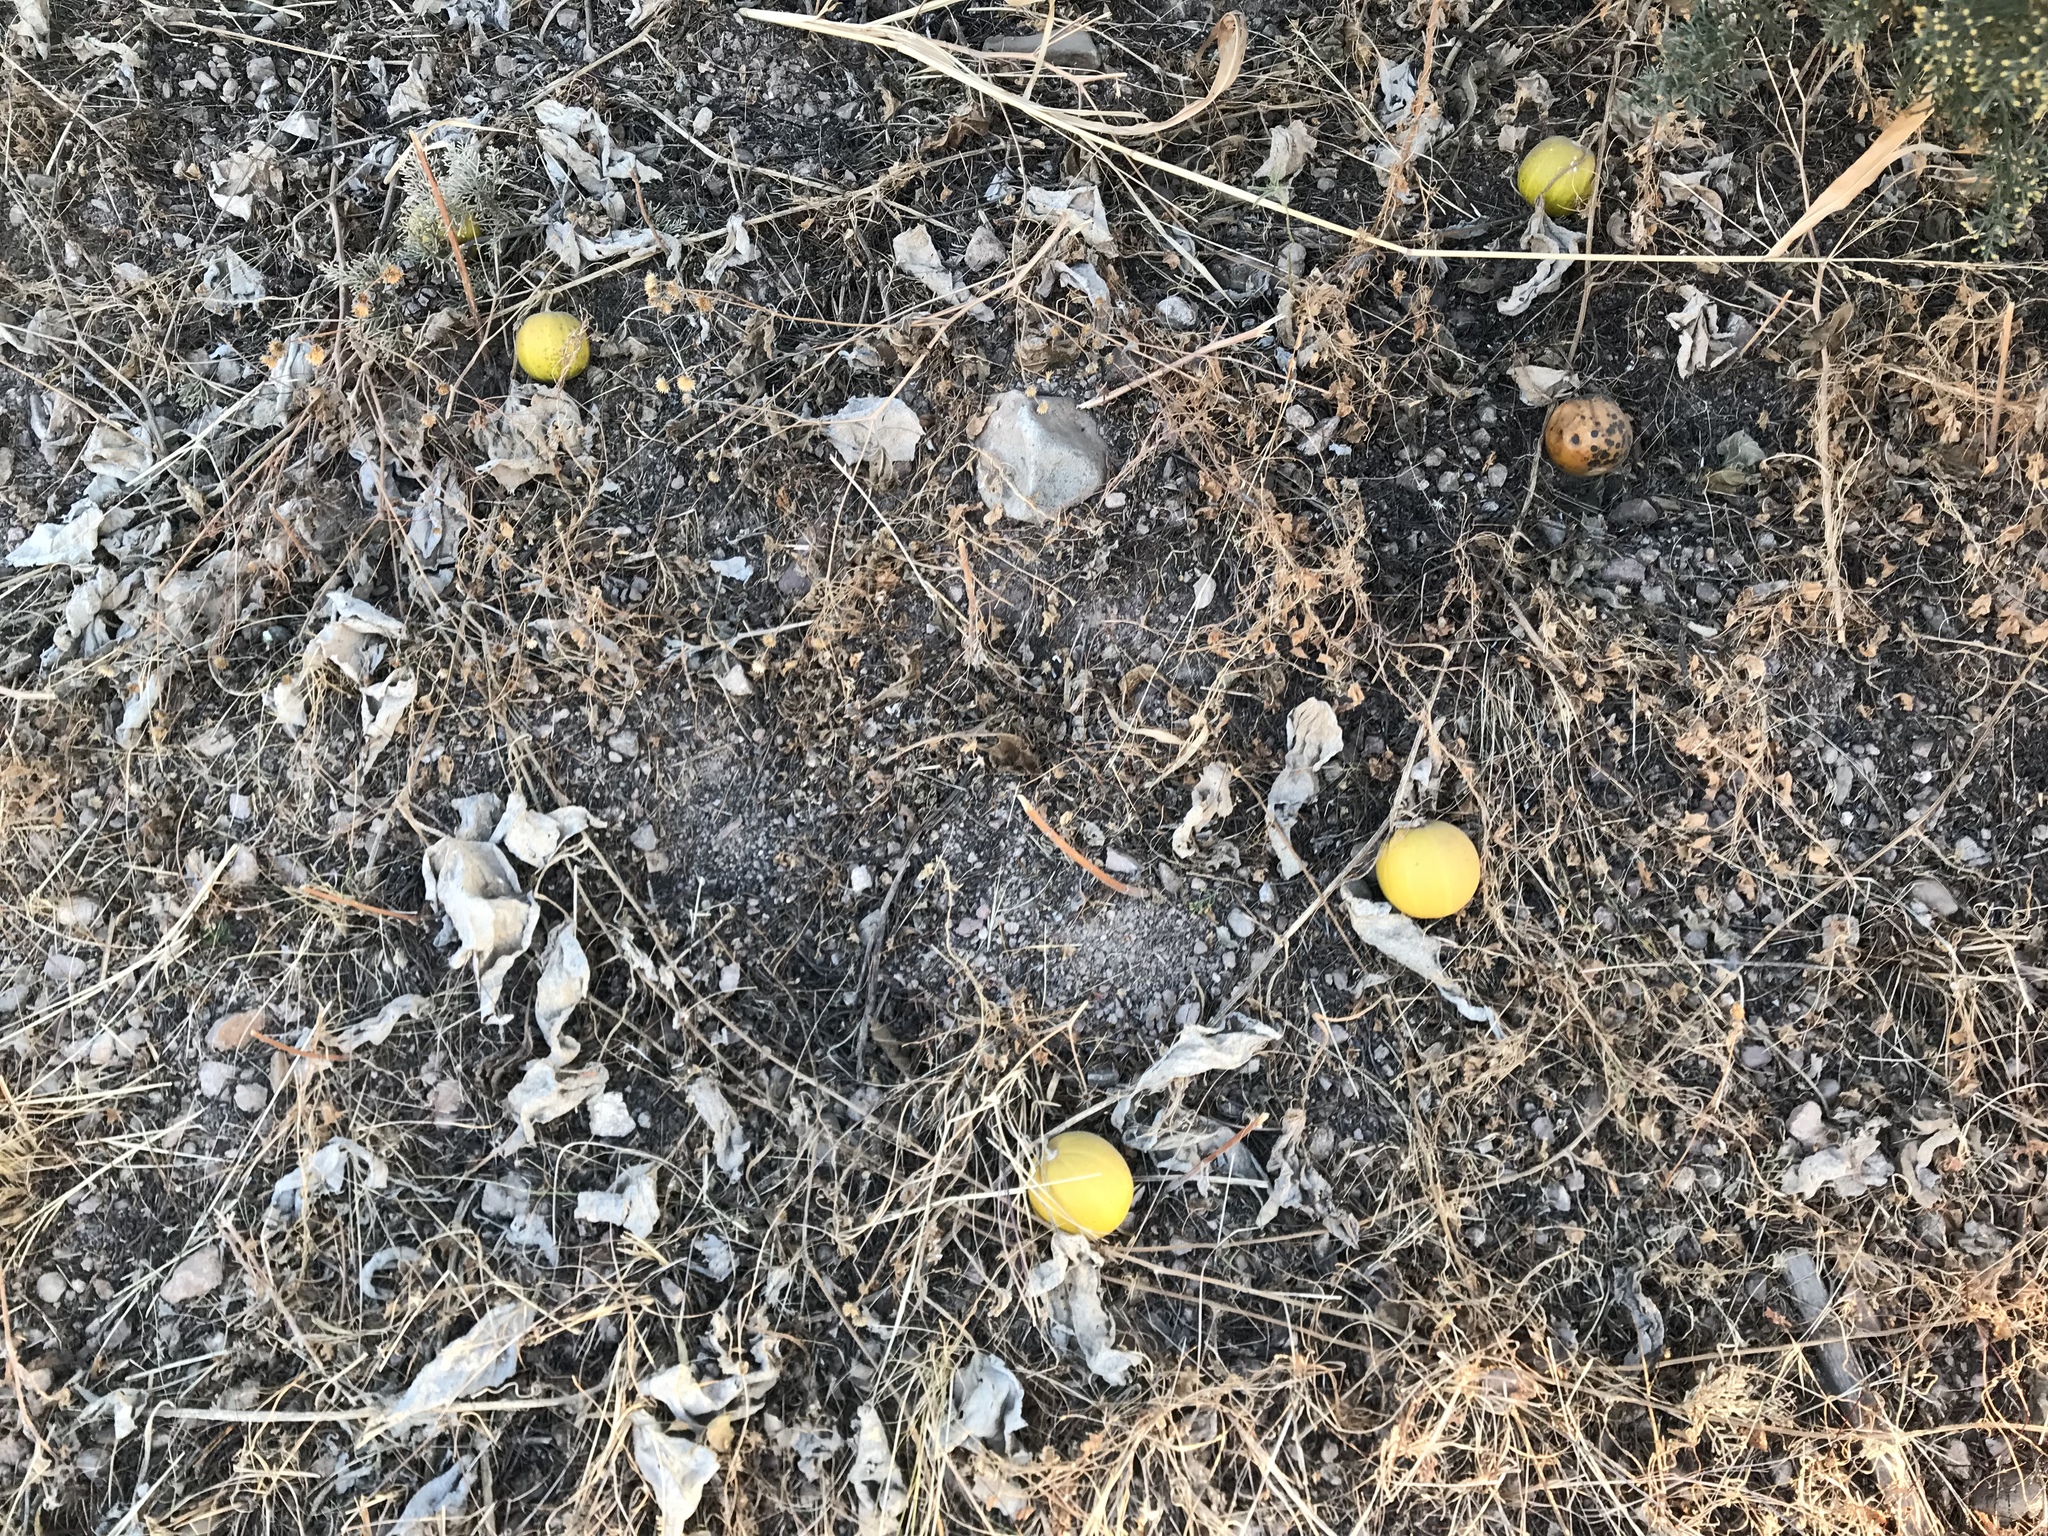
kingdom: Plantae
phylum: Tracheophyta
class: Magnoliopsida
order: Cucurbitales
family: Cucurbitaceae
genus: Cucurbita
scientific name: Cucurbita foetidissima
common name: Buffalo gourd
